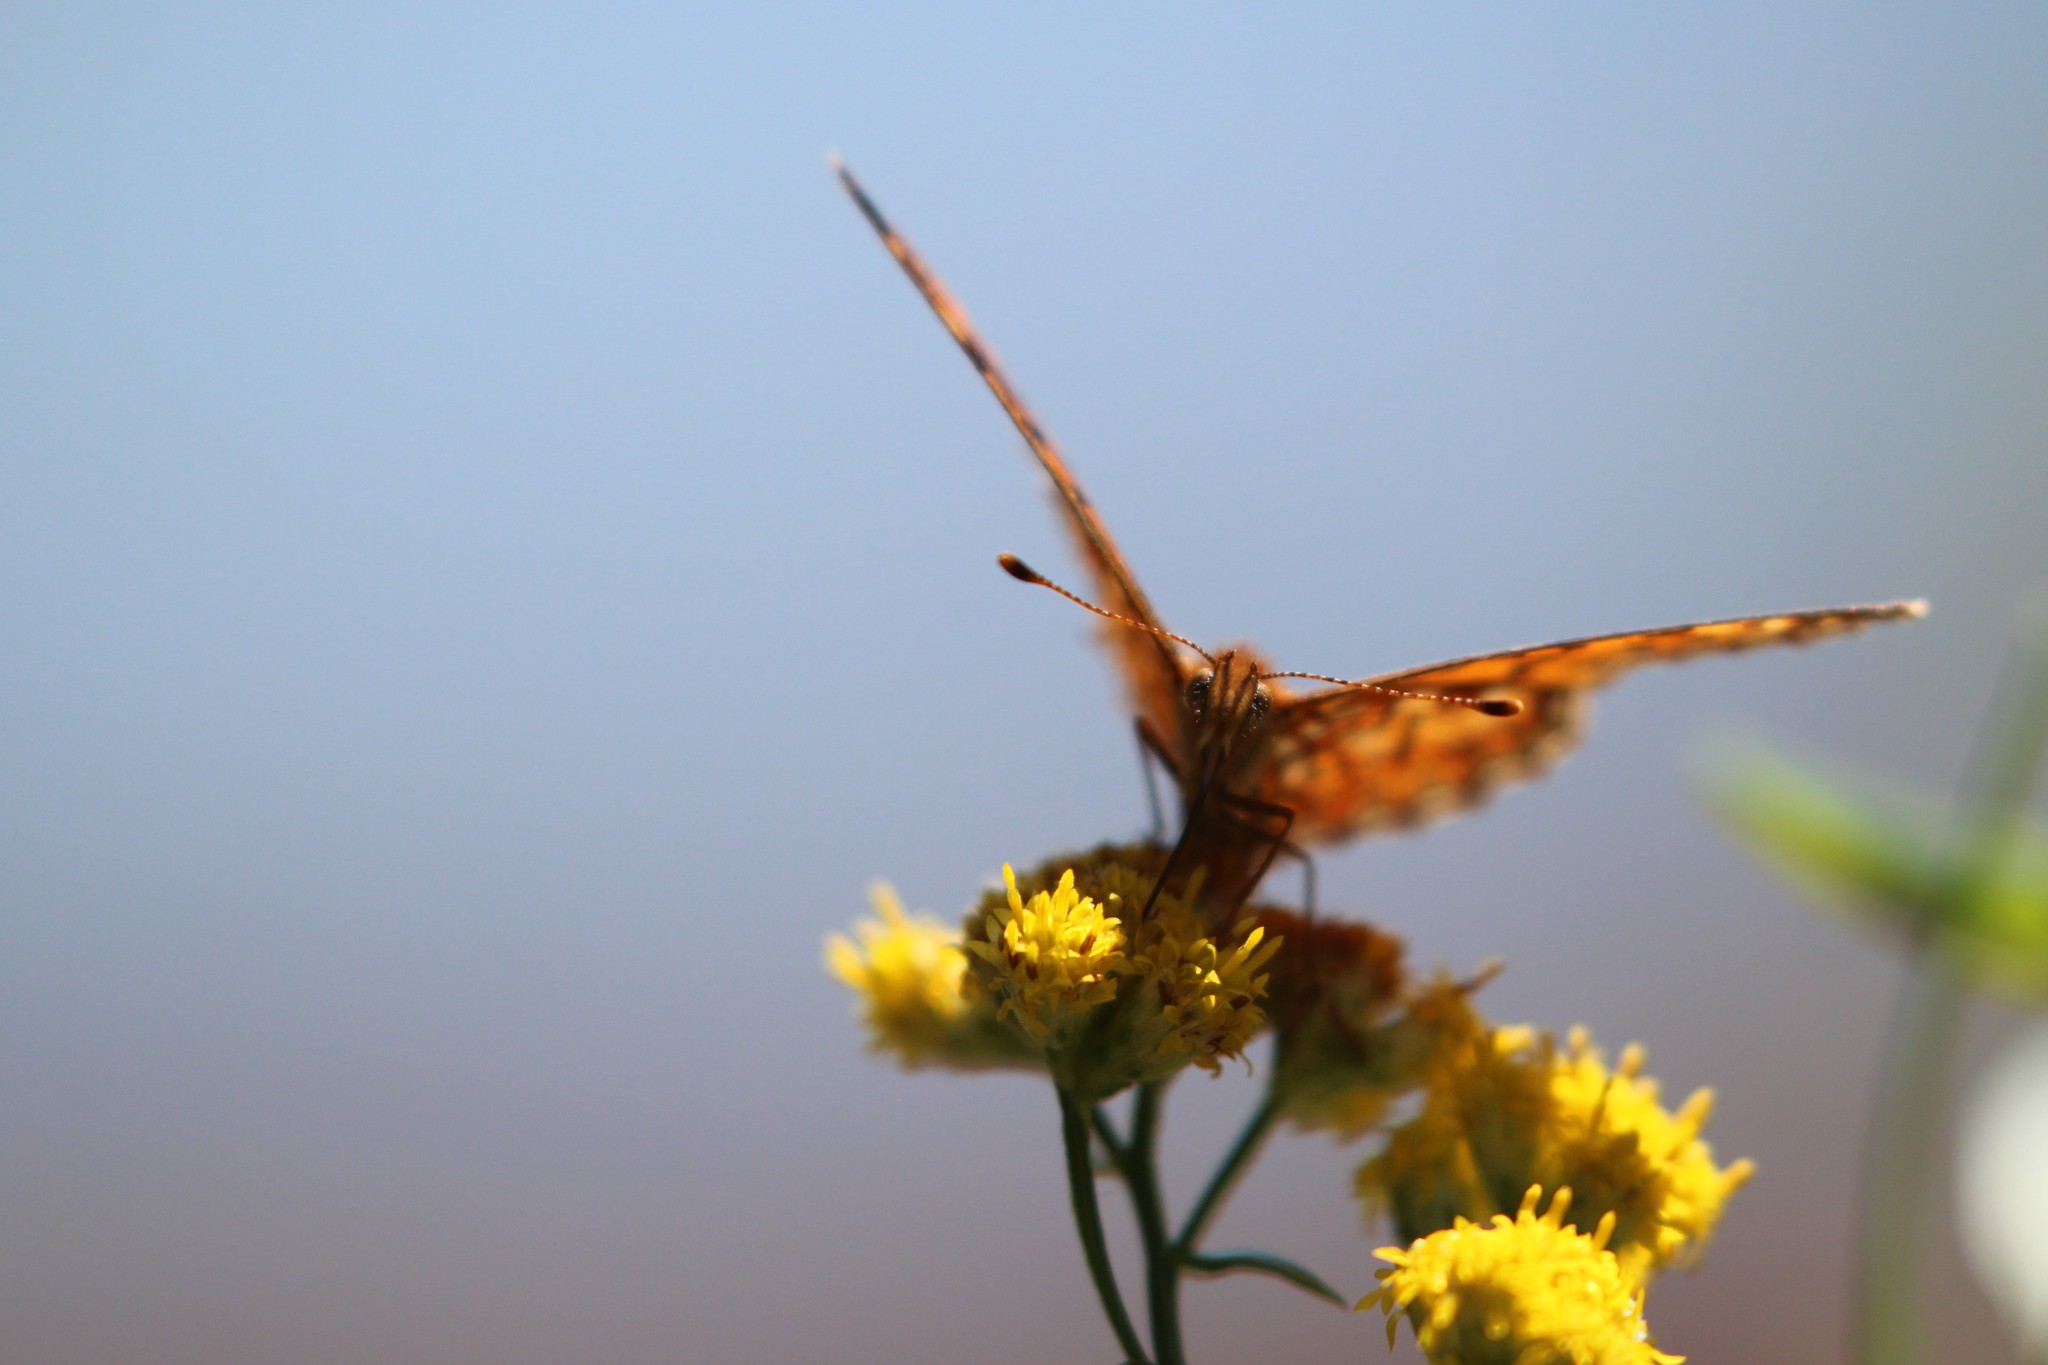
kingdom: Animalia
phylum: Arthropoda
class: Insecta
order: Lepidoptera
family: Nymphalidae
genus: Boloria
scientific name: Boloria
